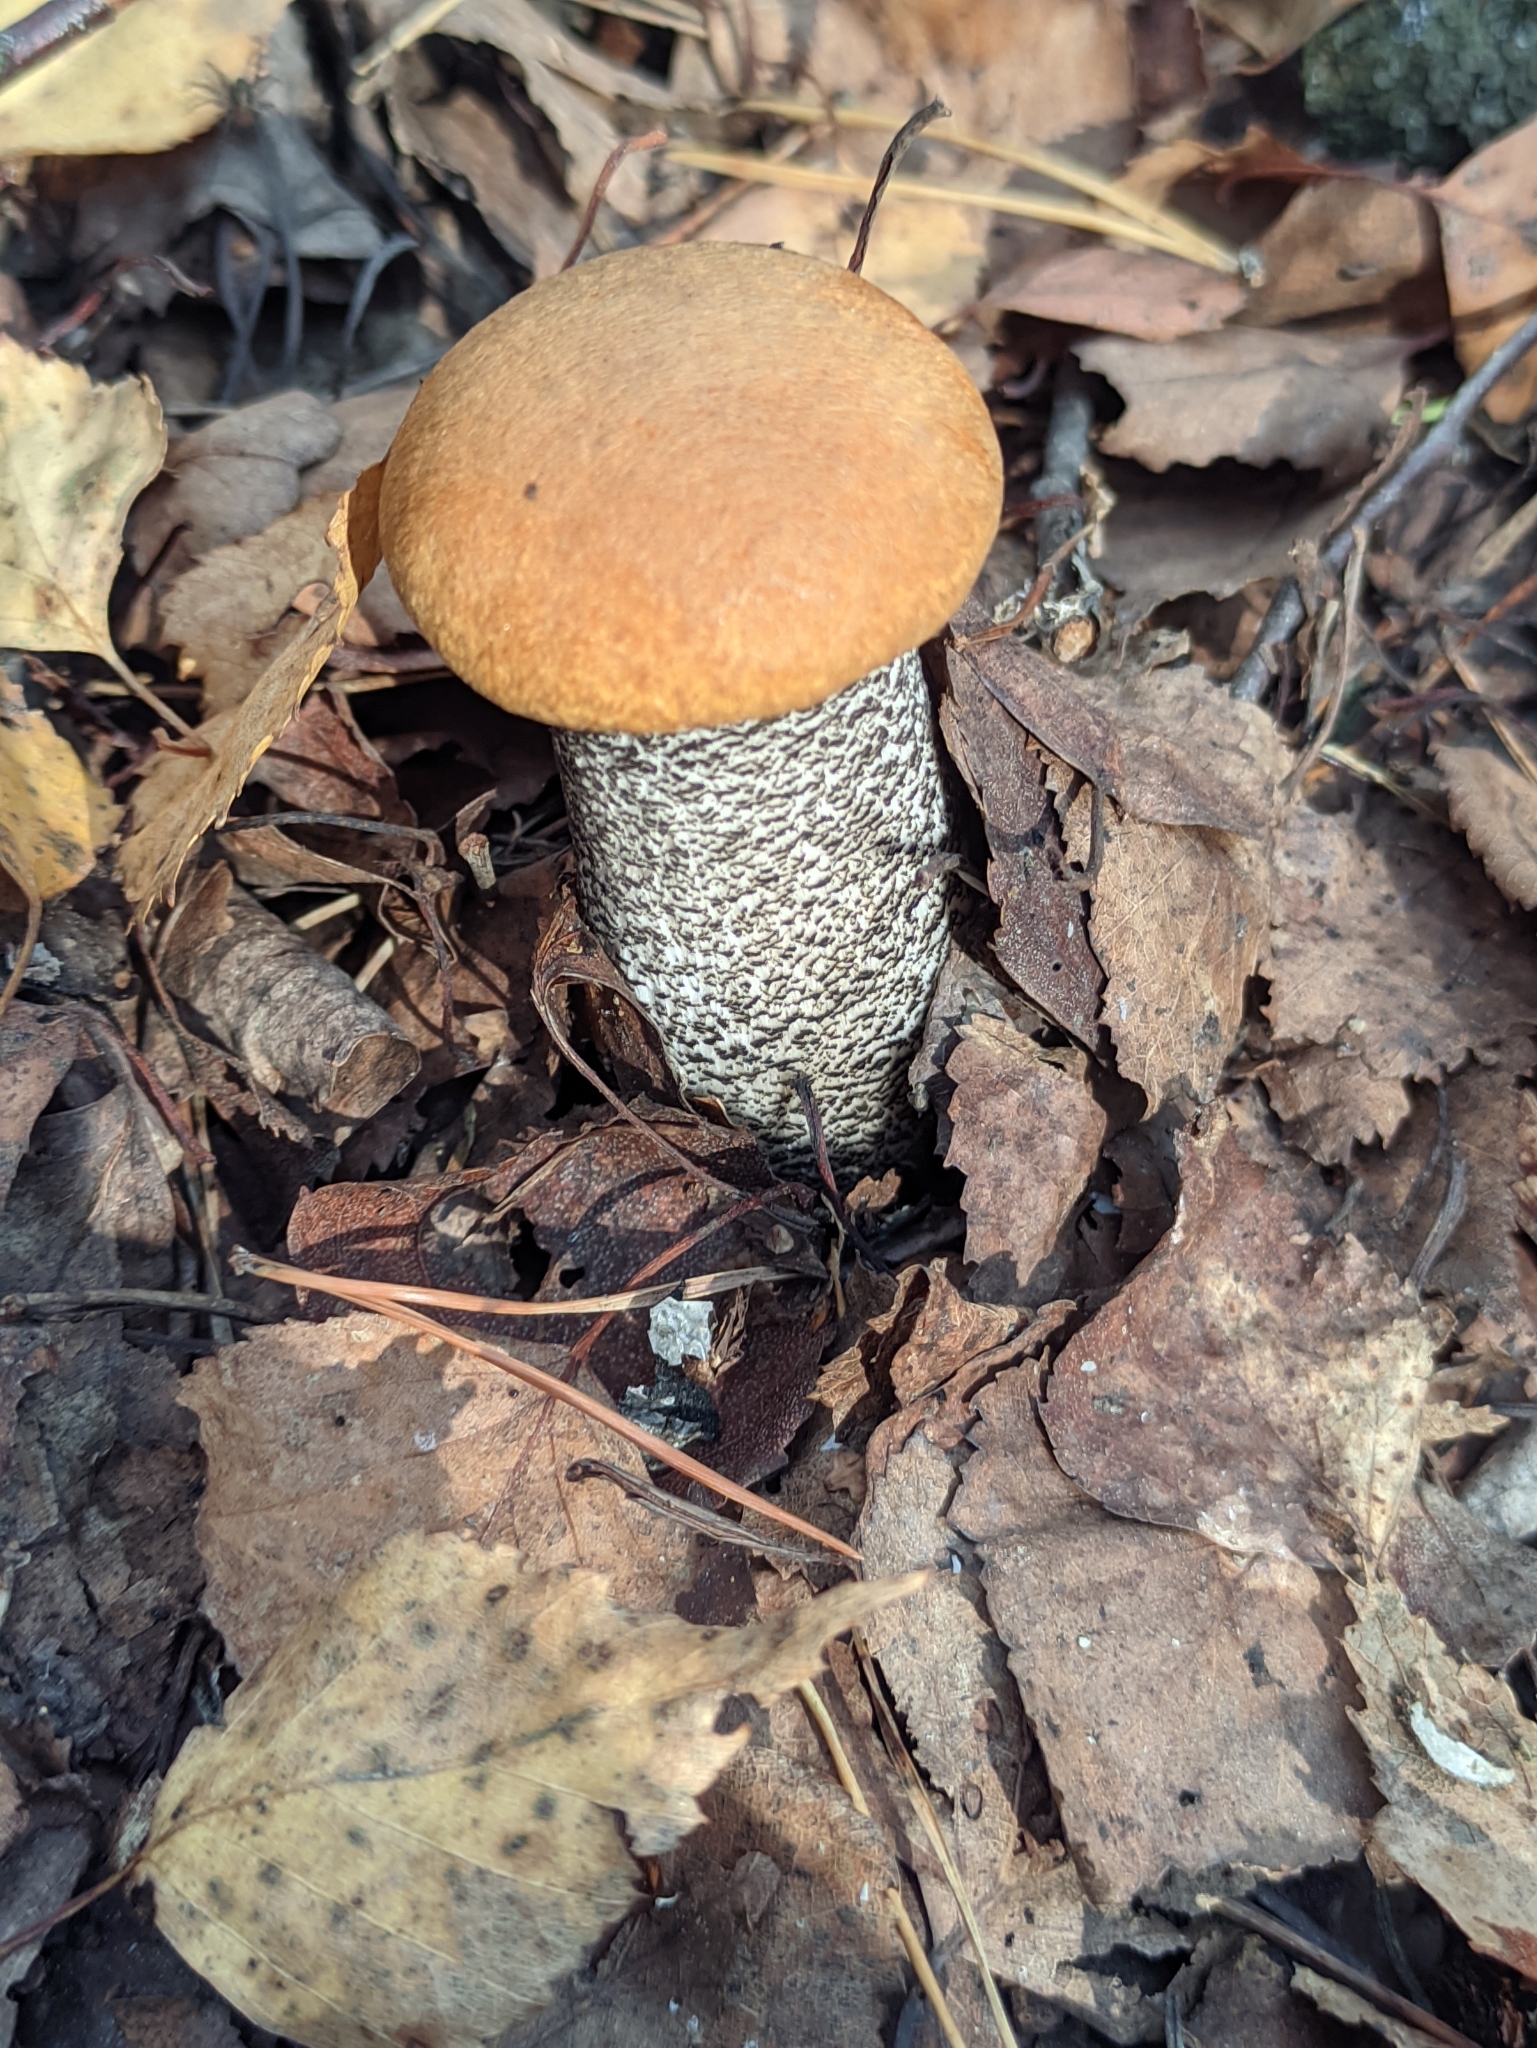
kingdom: Fungi
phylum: Basidiomycota
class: Agaricomycetes
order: Boletales
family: Boletaceae
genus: Leccinum
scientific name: Leccinum versipelle
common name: Orange birch bolete
